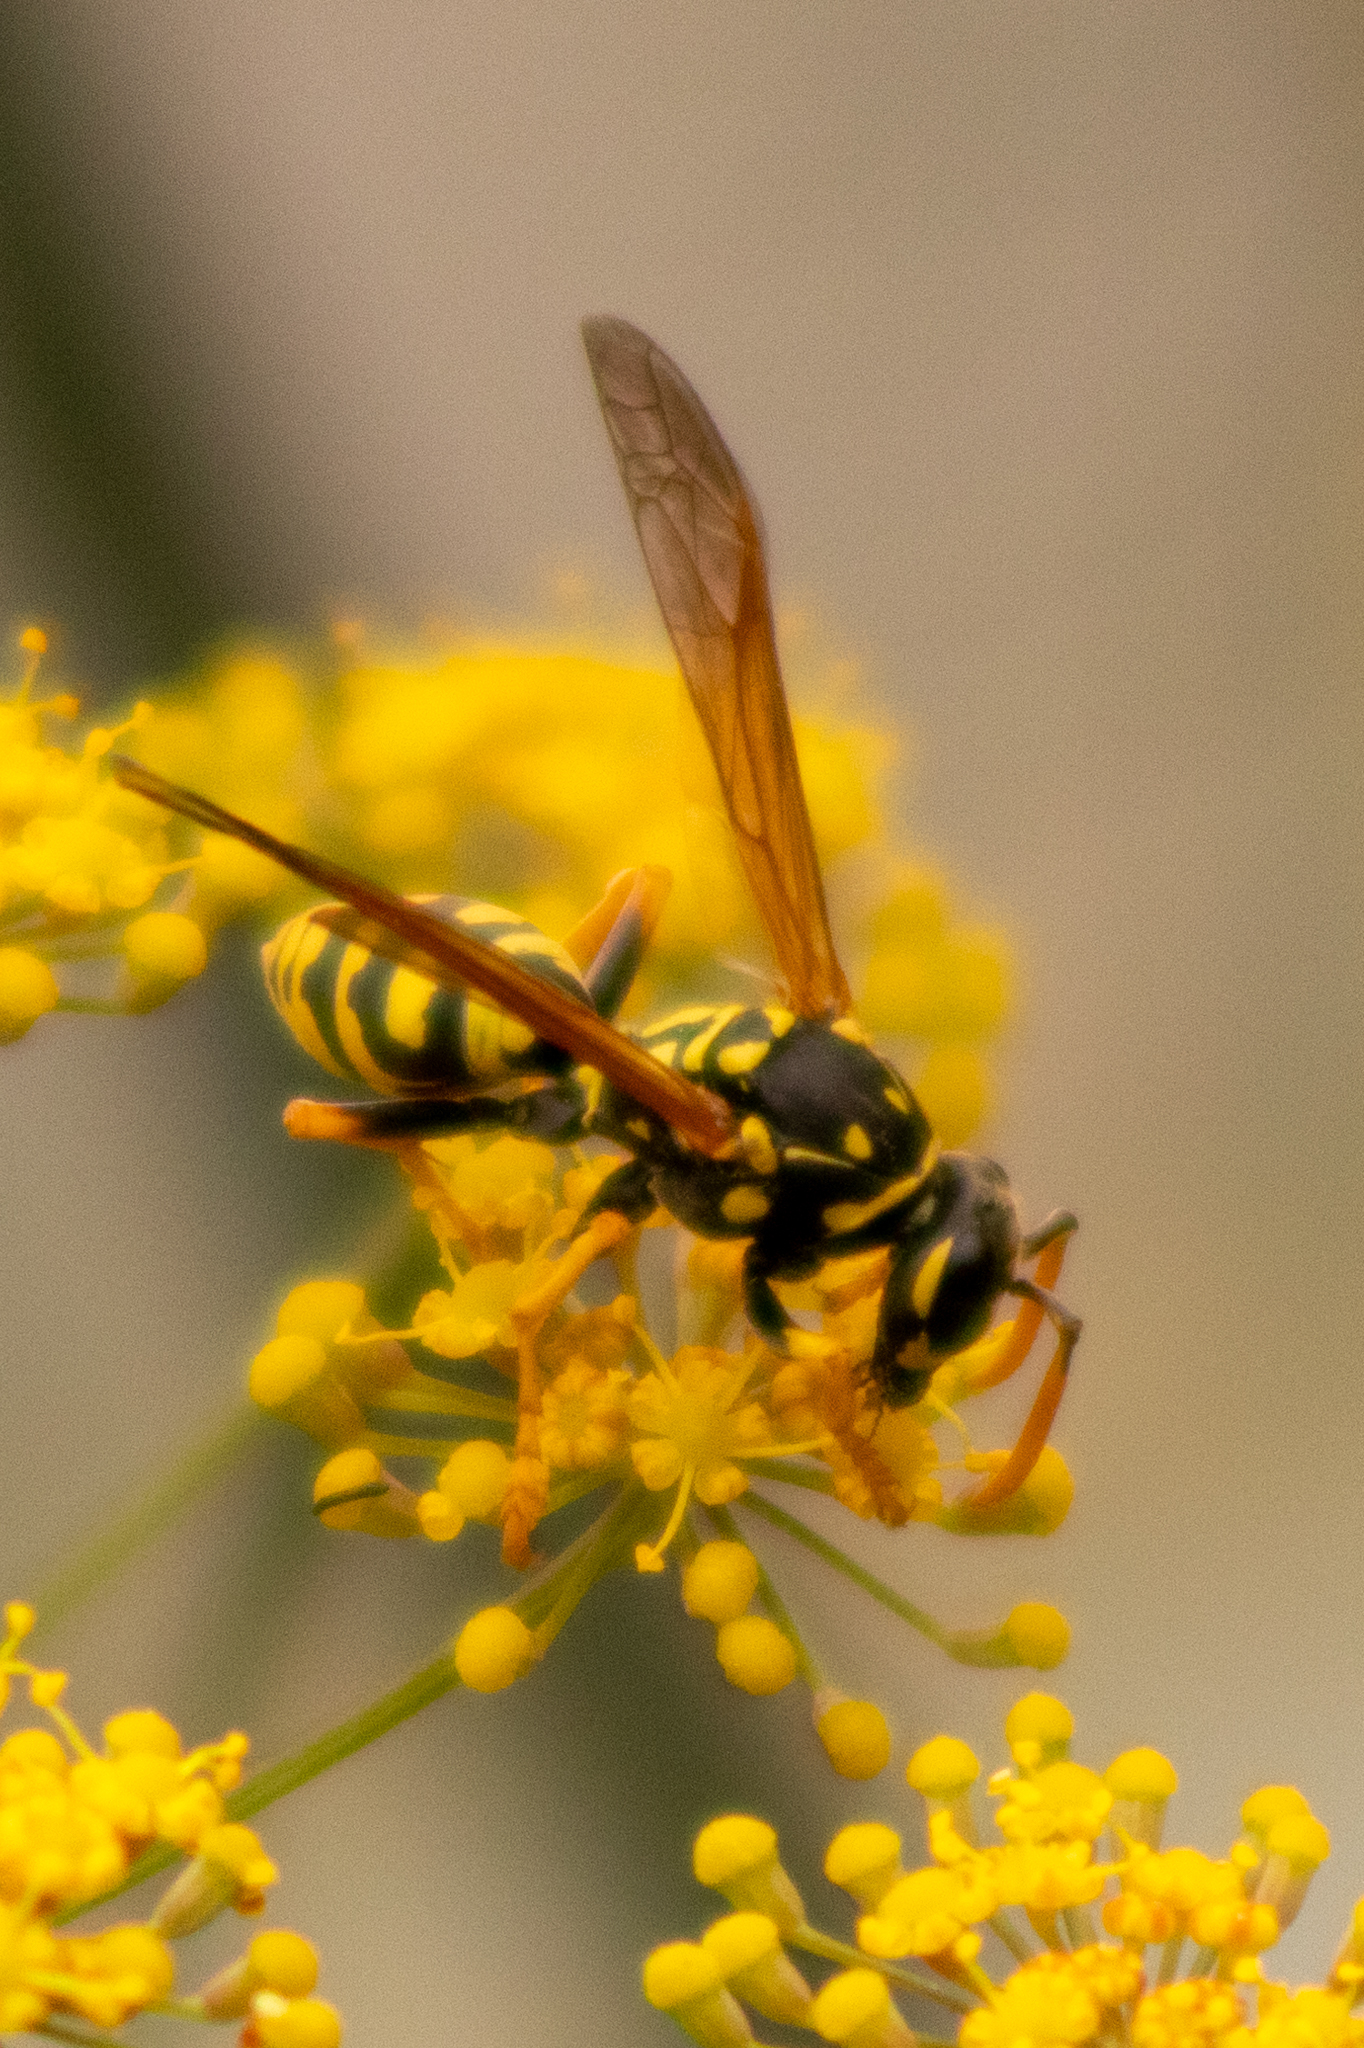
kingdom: Animalia
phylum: Arthropoda
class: Insecta
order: Hymenoptera
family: Eumenidae
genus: Polistes
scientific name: Polistes dominula
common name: Paper wasp
